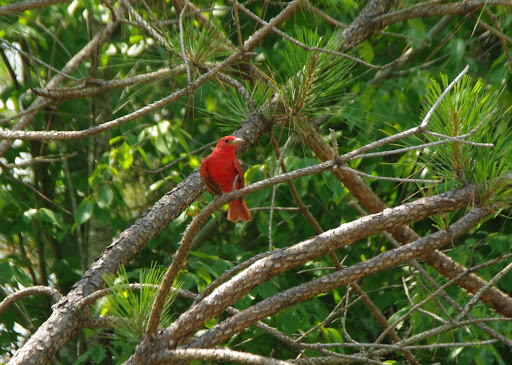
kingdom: Animalia
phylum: Chordata
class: Aves
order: Passeriformes
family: Cardinalidae
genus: Piranga
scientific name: Piranga rubra
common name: Summer tanager
